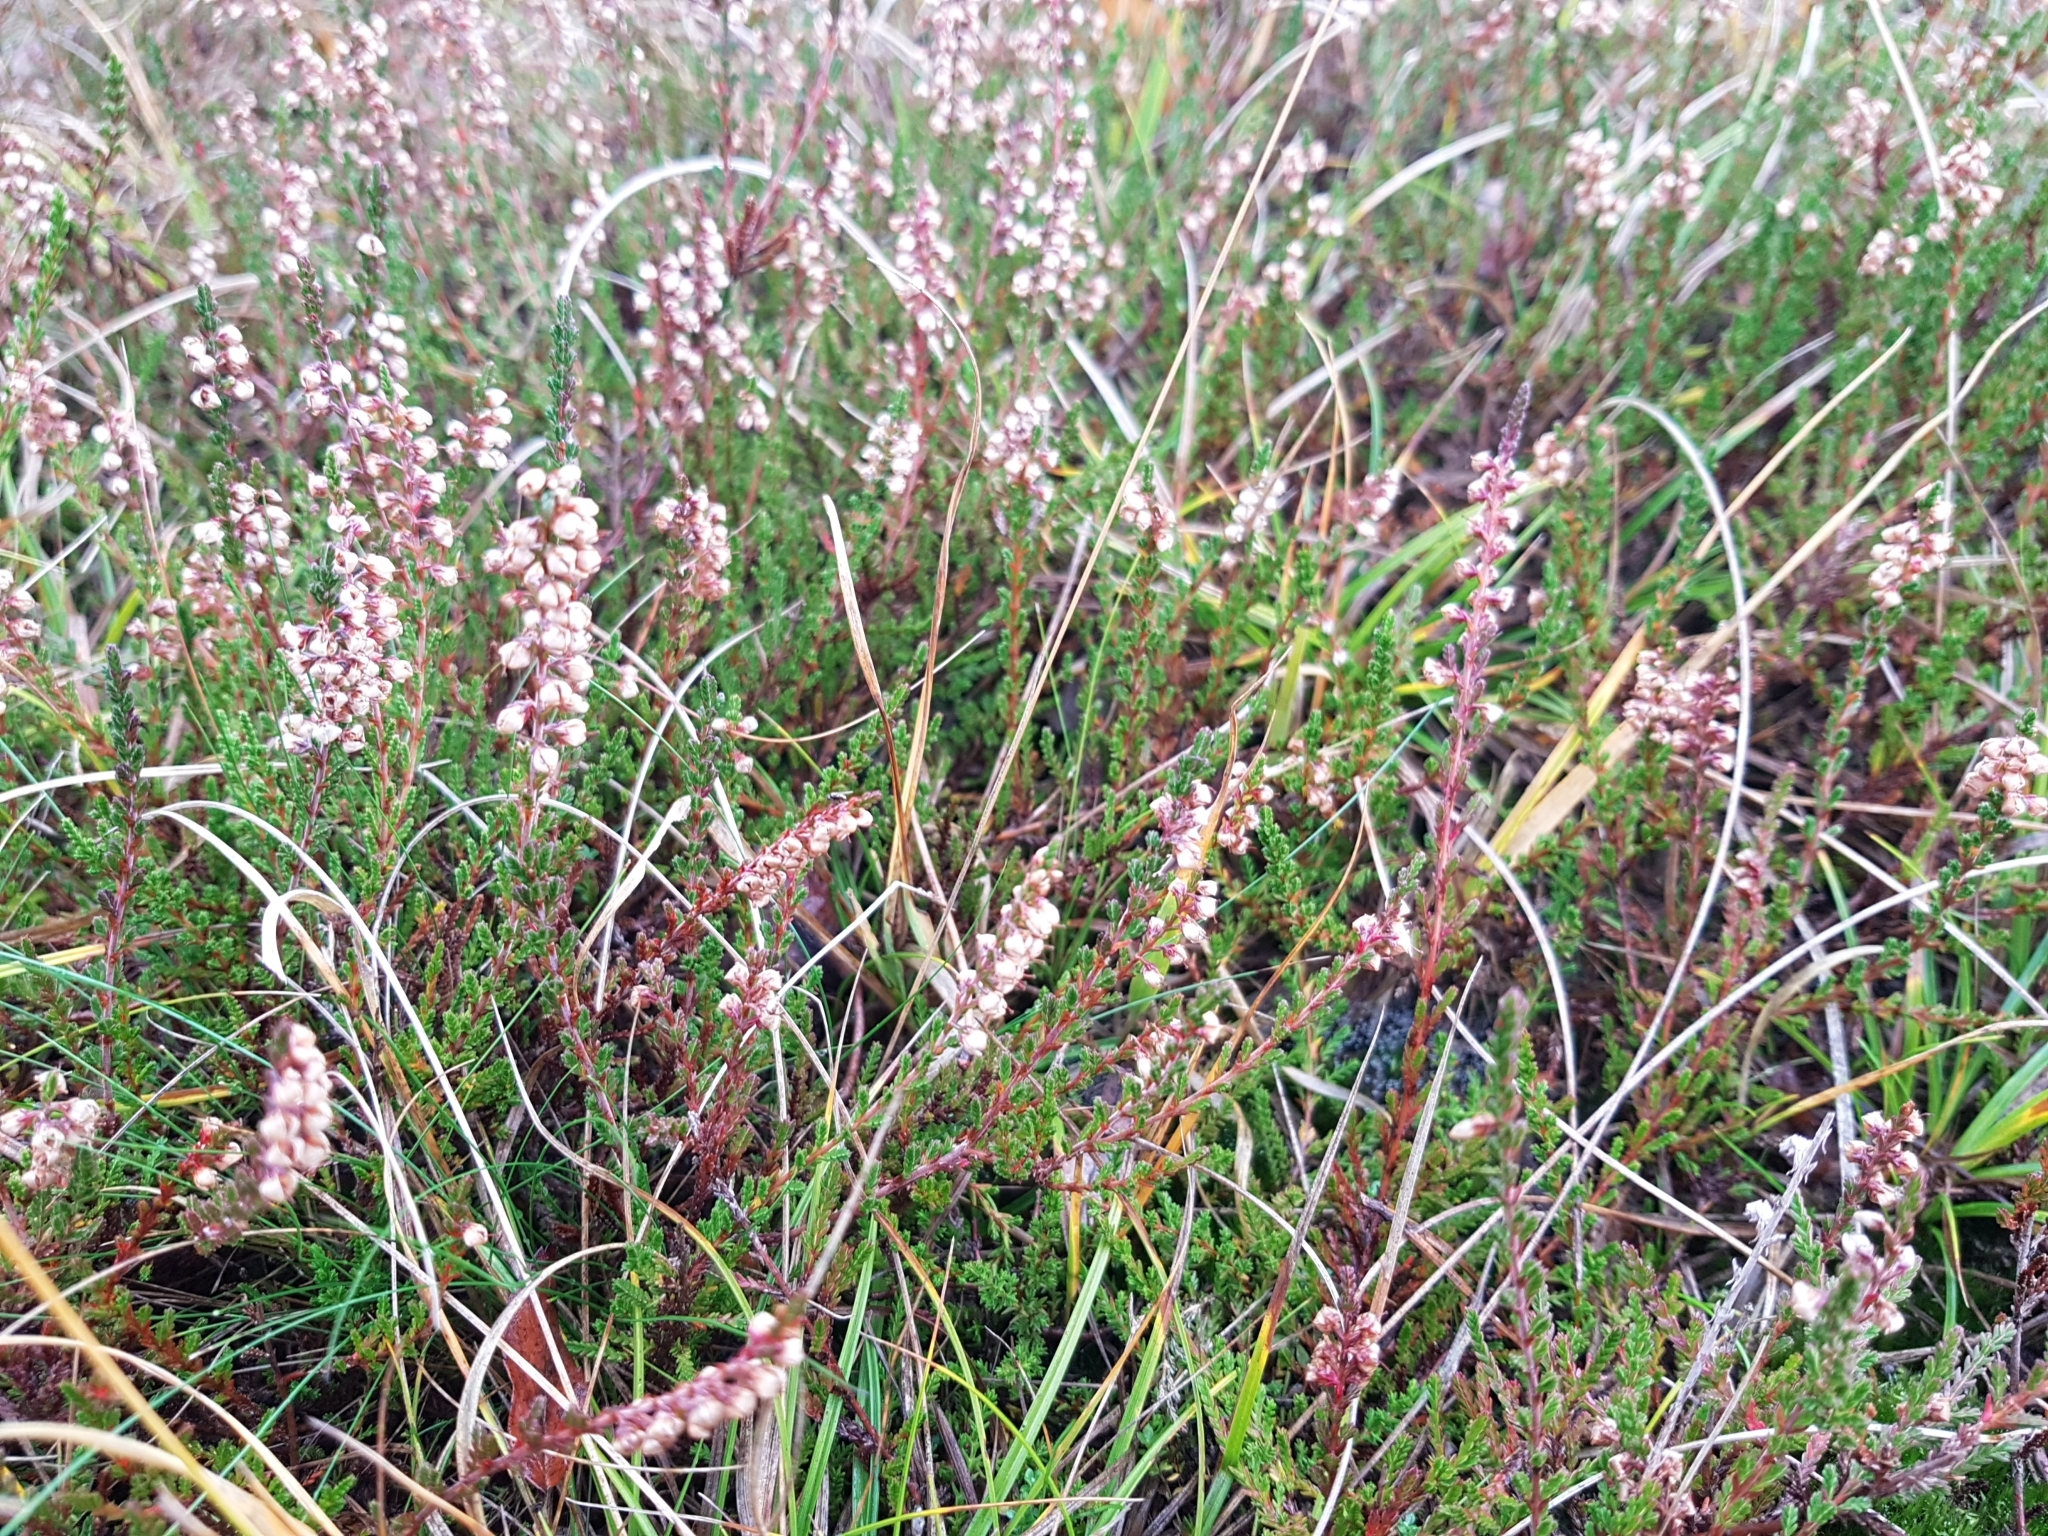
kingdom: Plantae
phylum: Tracheophyta
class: Magnoliopsida
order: Ericales
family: Ericaceae
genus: Calluna
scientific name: Calluna vulgaris
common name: Heather
